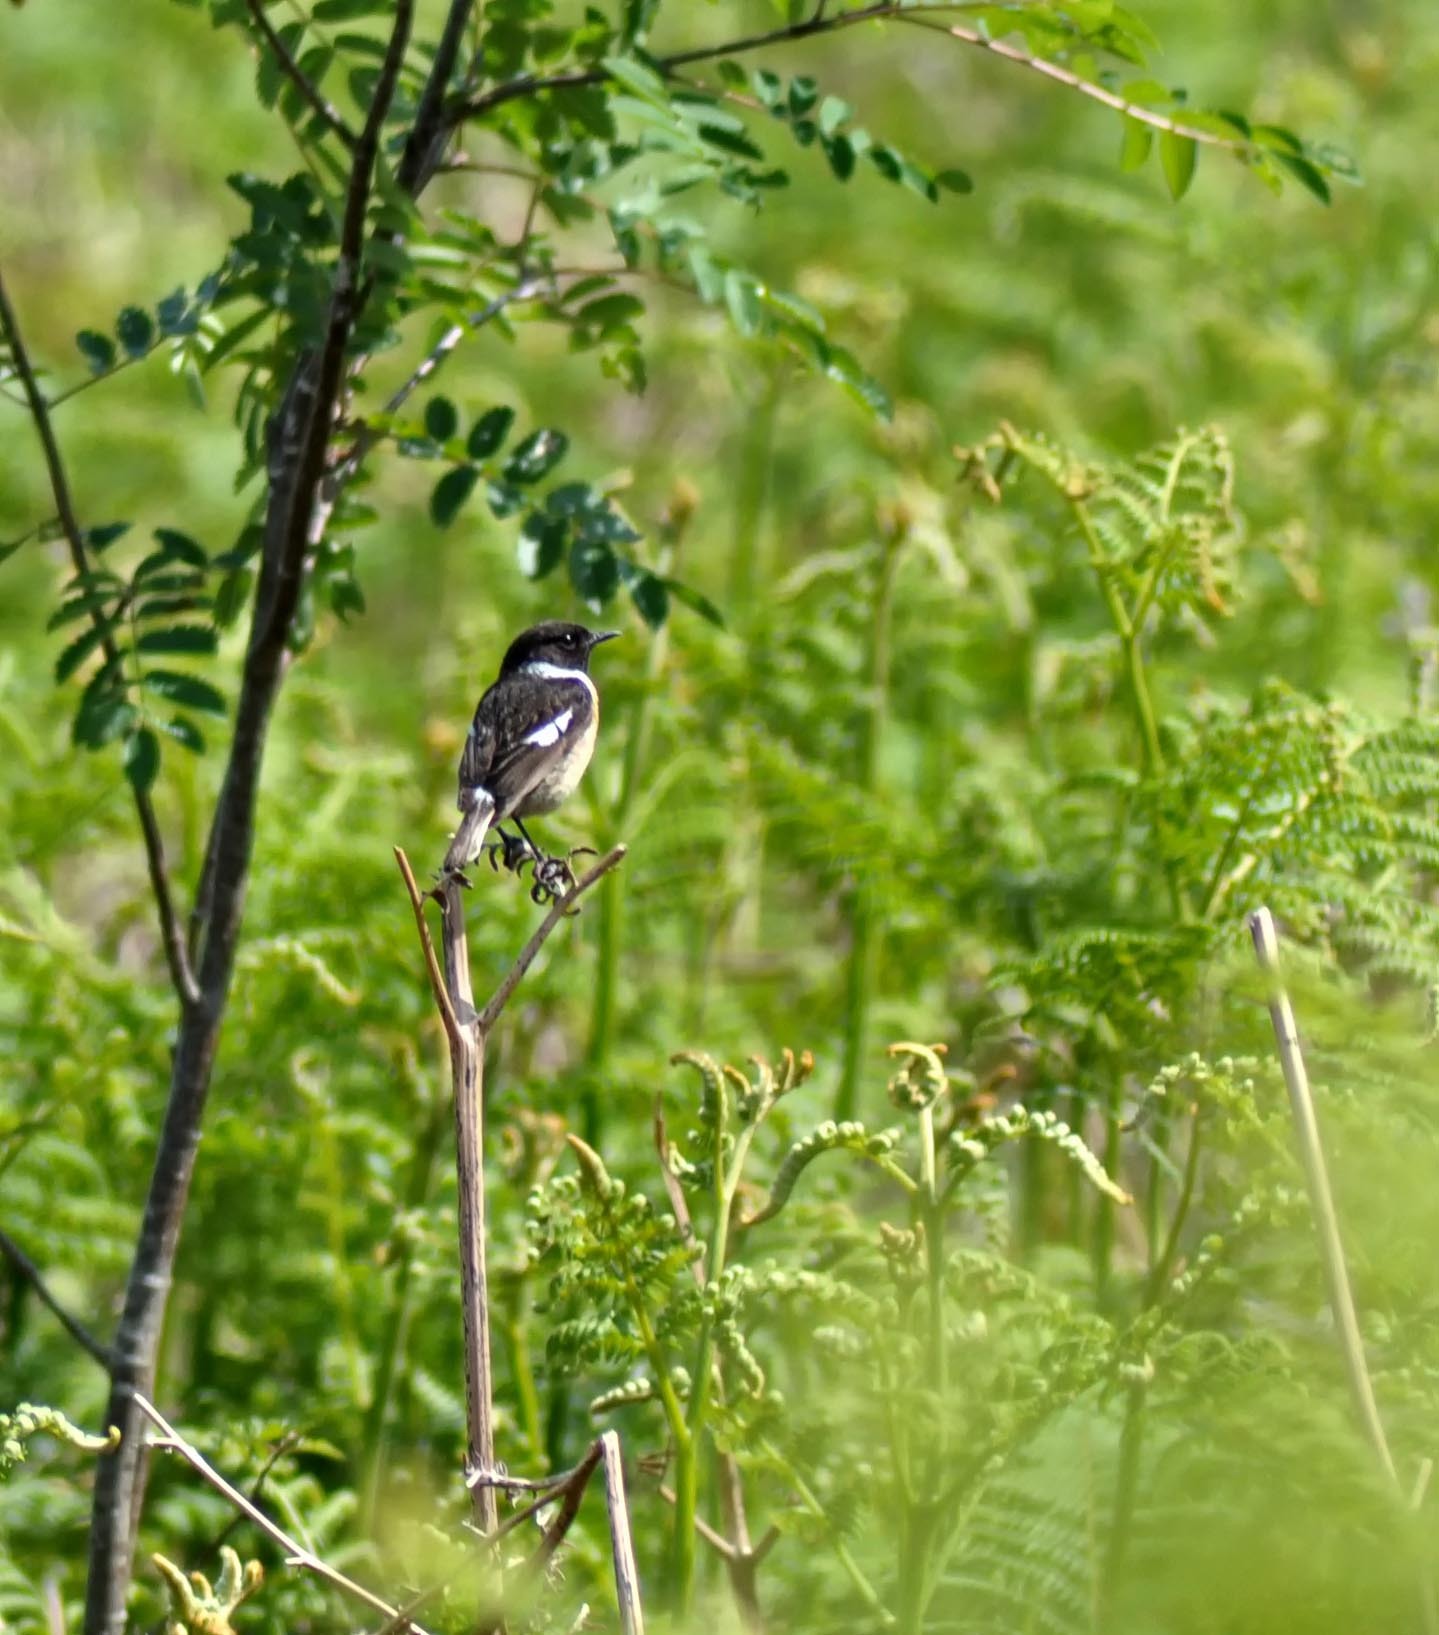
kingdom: Animalia
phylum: Chordata
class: Aves
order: Passeriformes
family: Muscicapidae
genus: Saxicola
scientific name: Saxicola rubicola
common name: European stonechat
